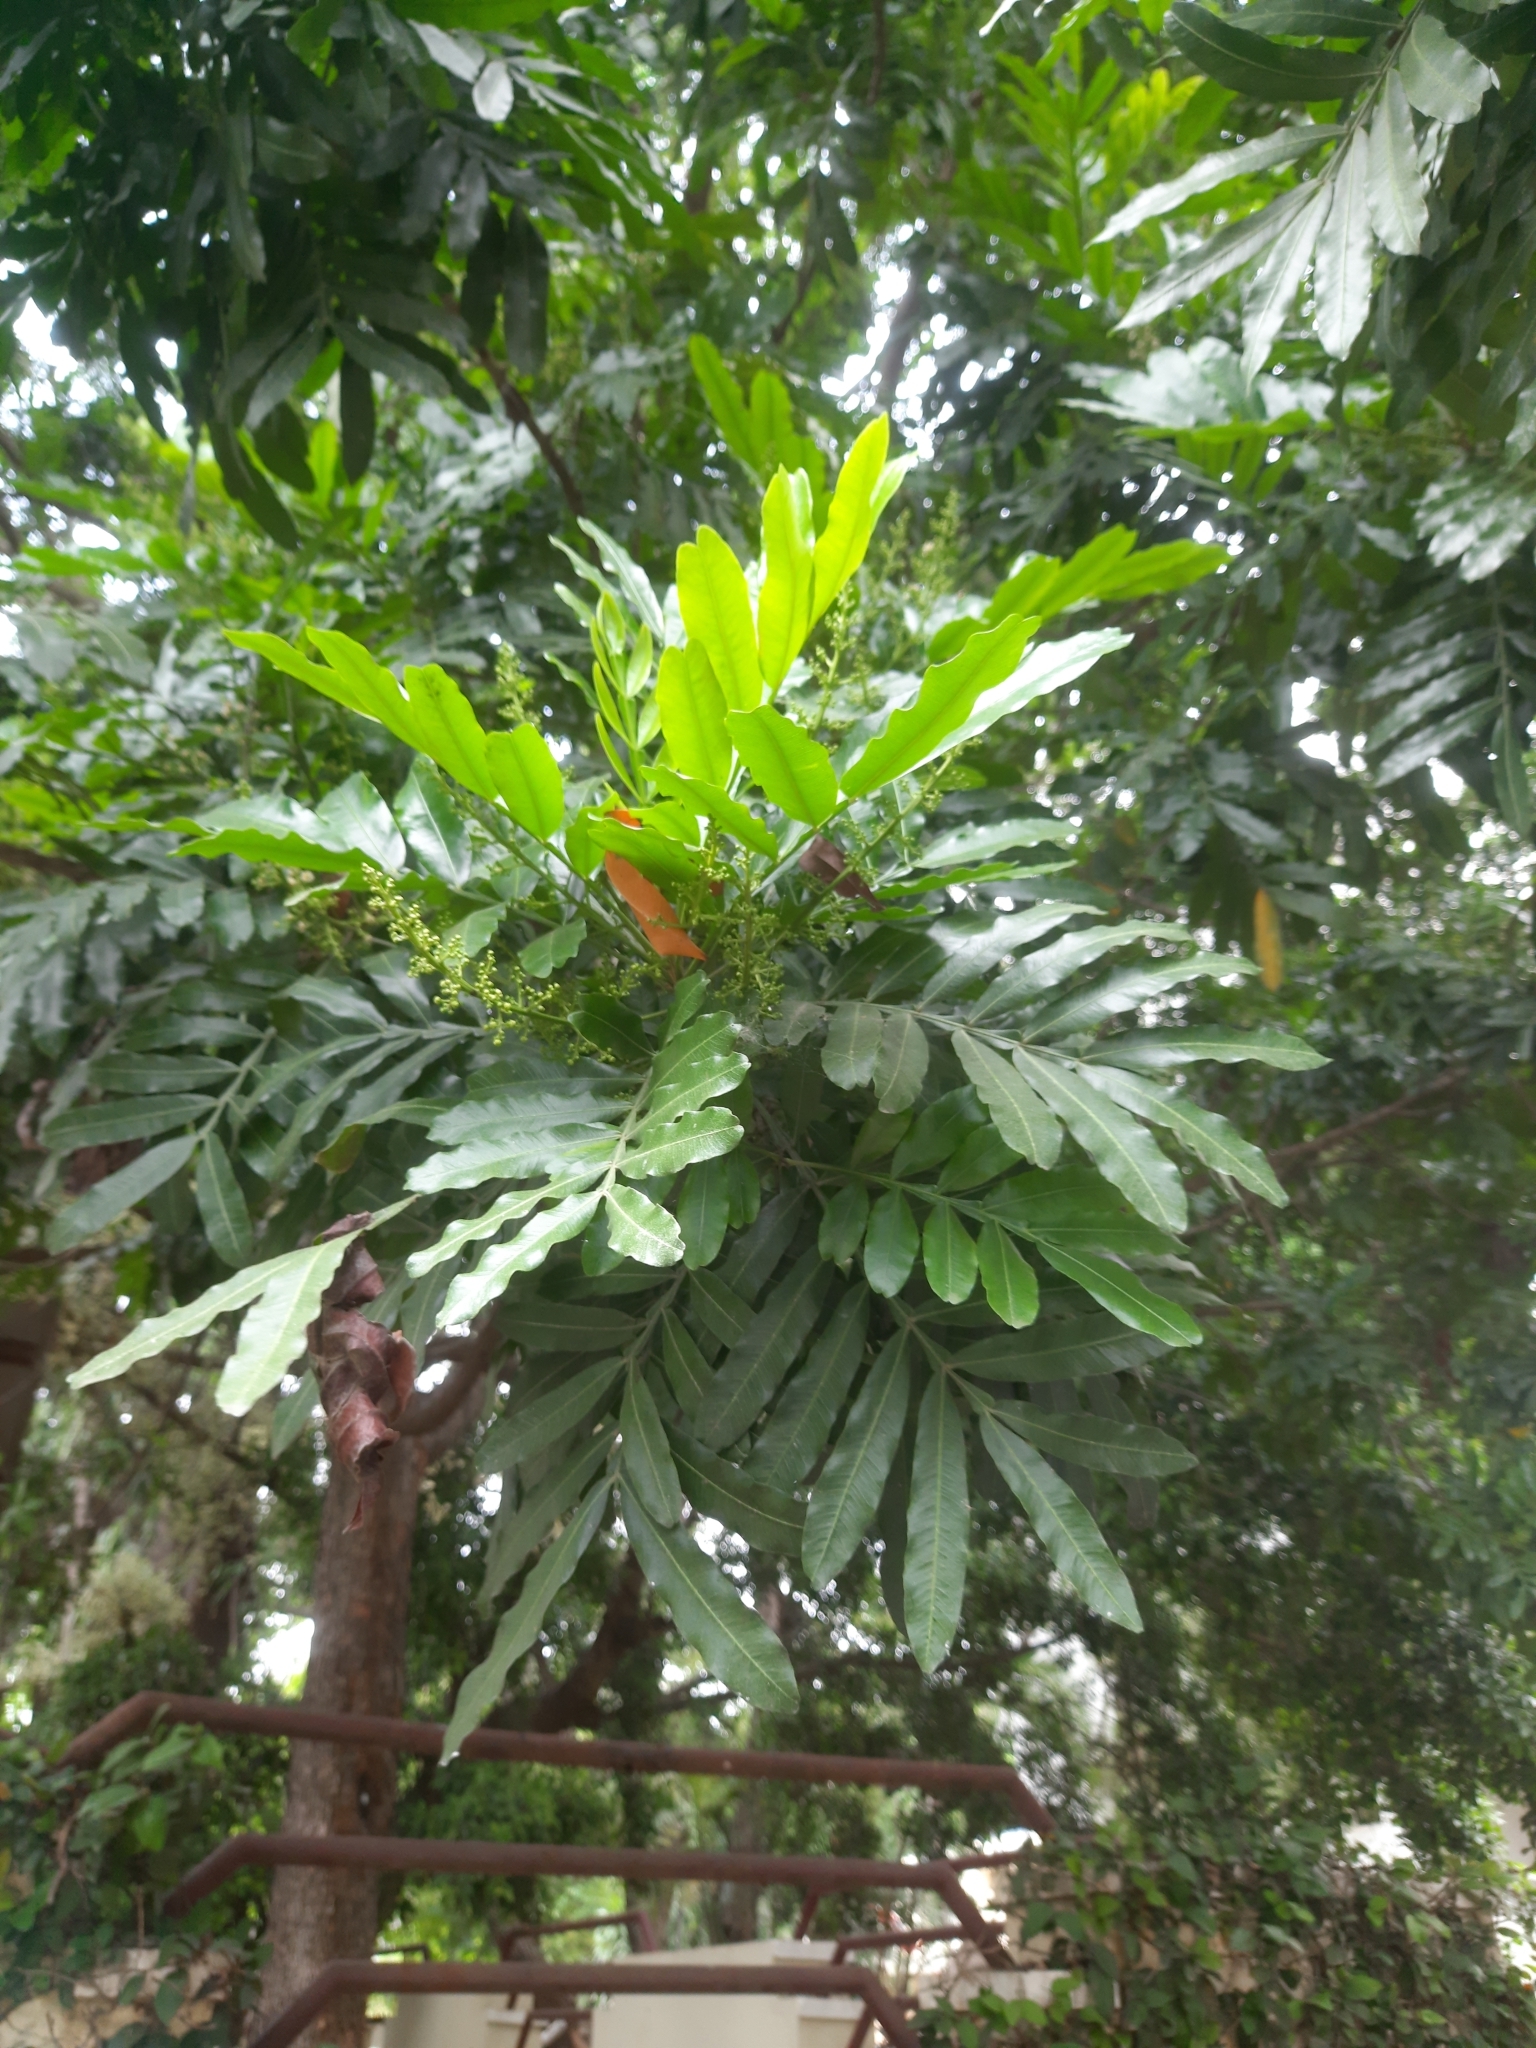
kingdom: Plantae
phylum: Tracheophyta
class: Magnoliopsida
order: Sapindales
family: Sapindaceae
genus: Filicium
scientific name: Filicium decipiens
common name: Ferntree
